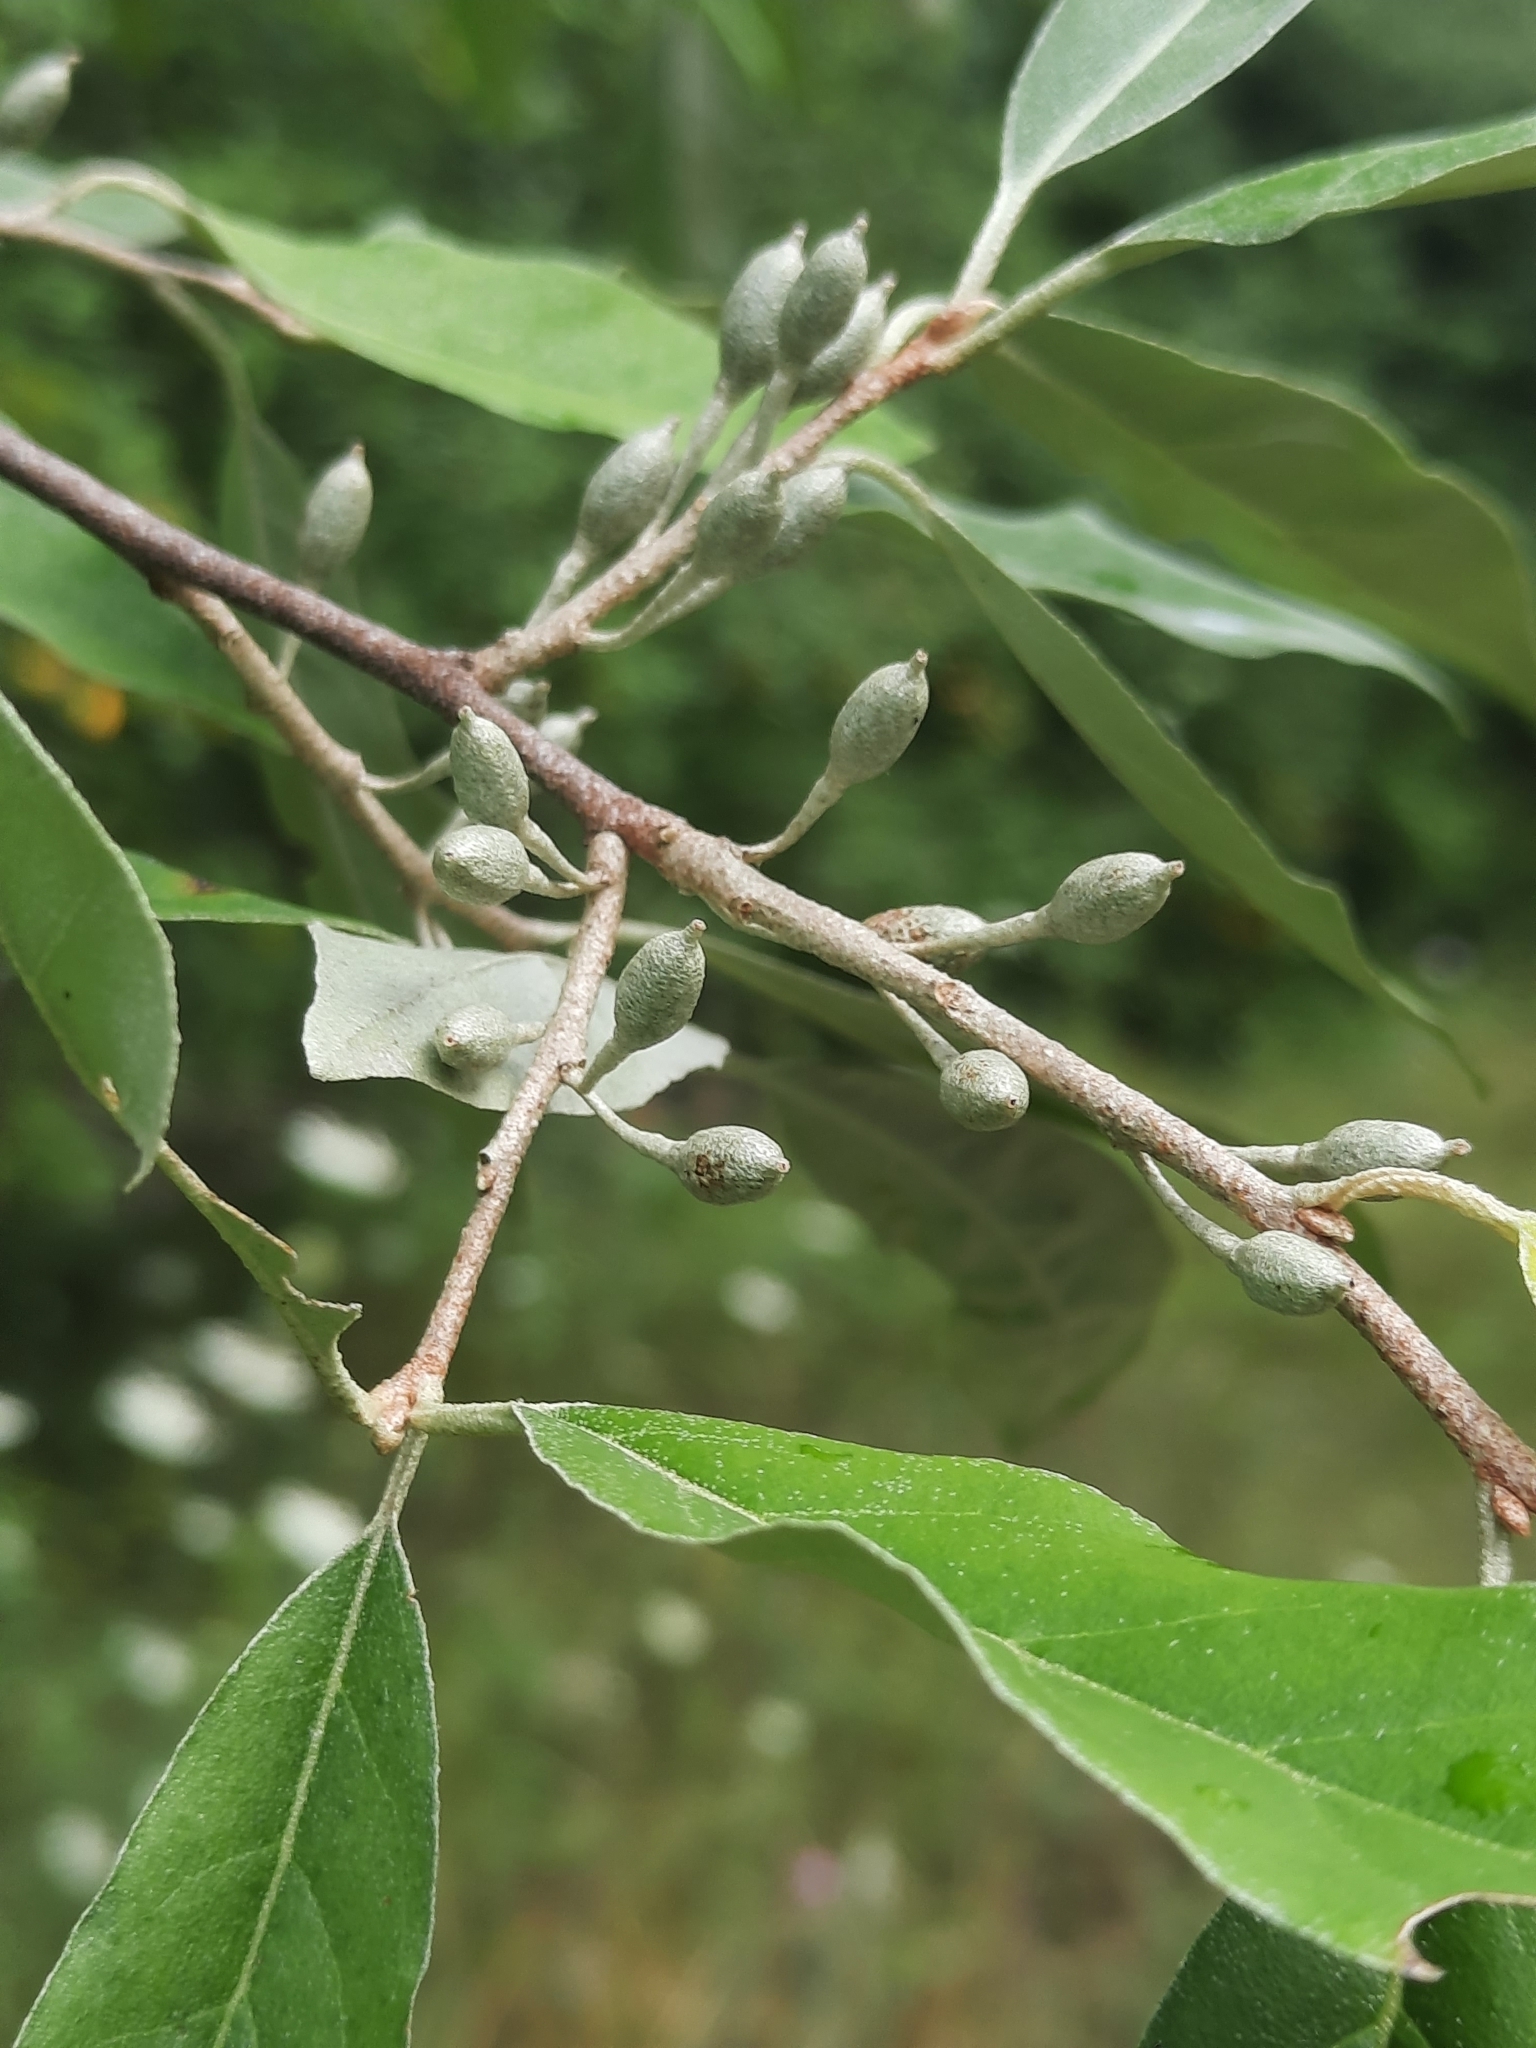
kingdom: Plantae
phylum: Tracheophyta
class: Magnoliopsida
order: Rosales
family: Elaeagnaceae
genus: Elaeagnus
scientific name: Elaeagnus umbellata
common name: Autumn olive
